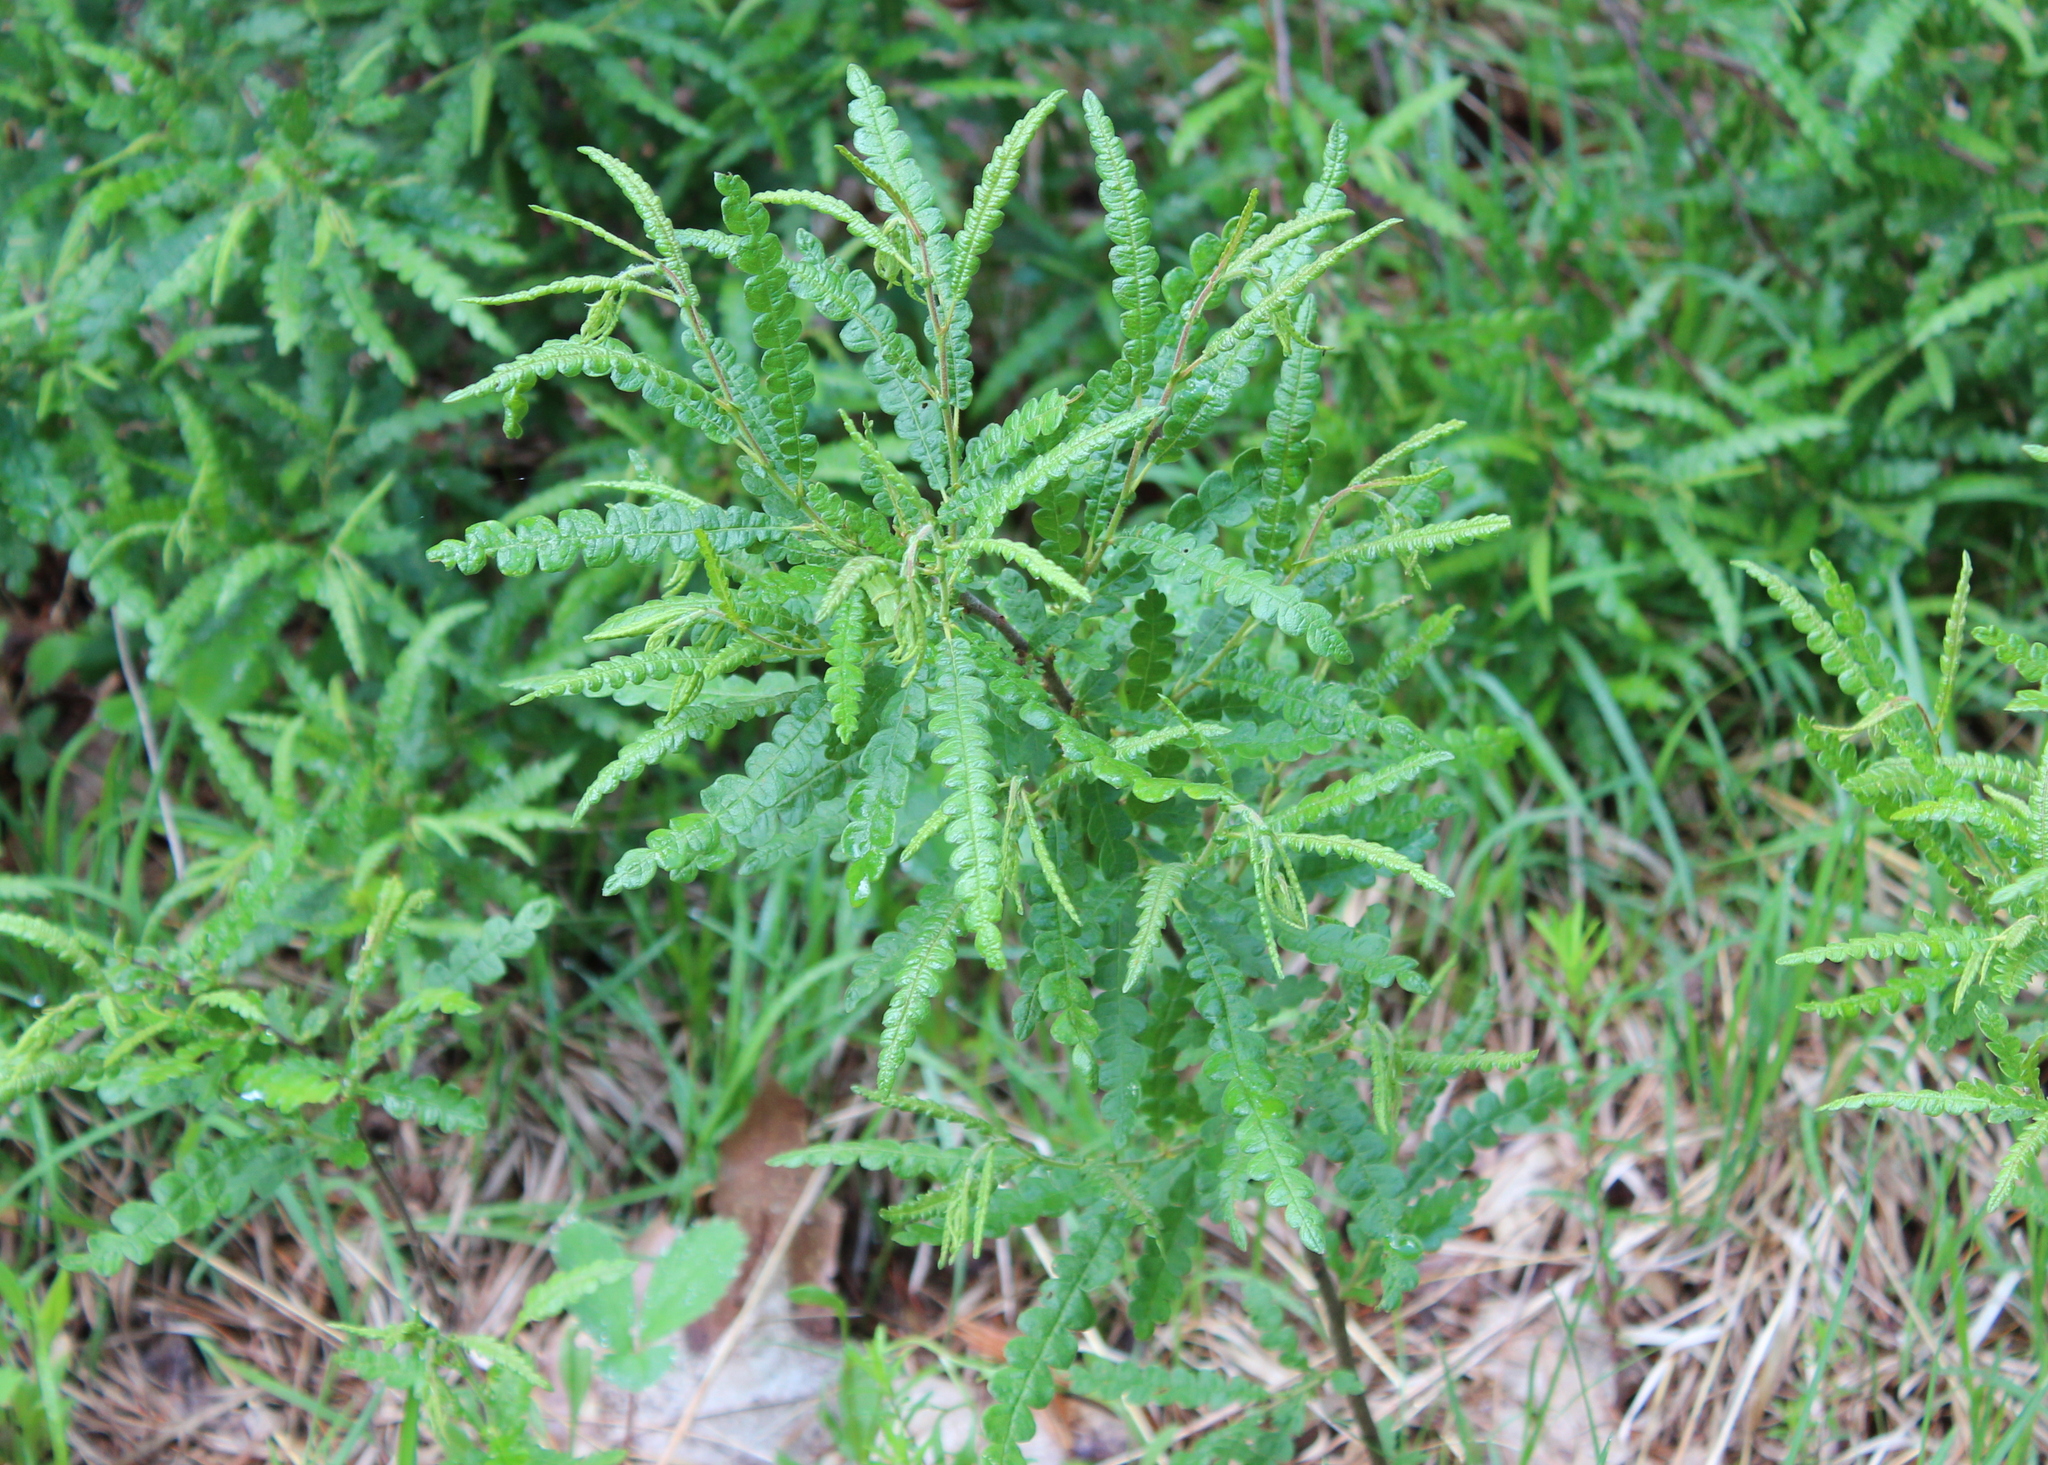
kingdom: Plantae
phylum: Tracheophyta
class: Magnoliopsida
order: Fagales
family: Myricaceae
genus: Comptonia
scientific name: Comptonia peregrina
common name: Sweet-fern
